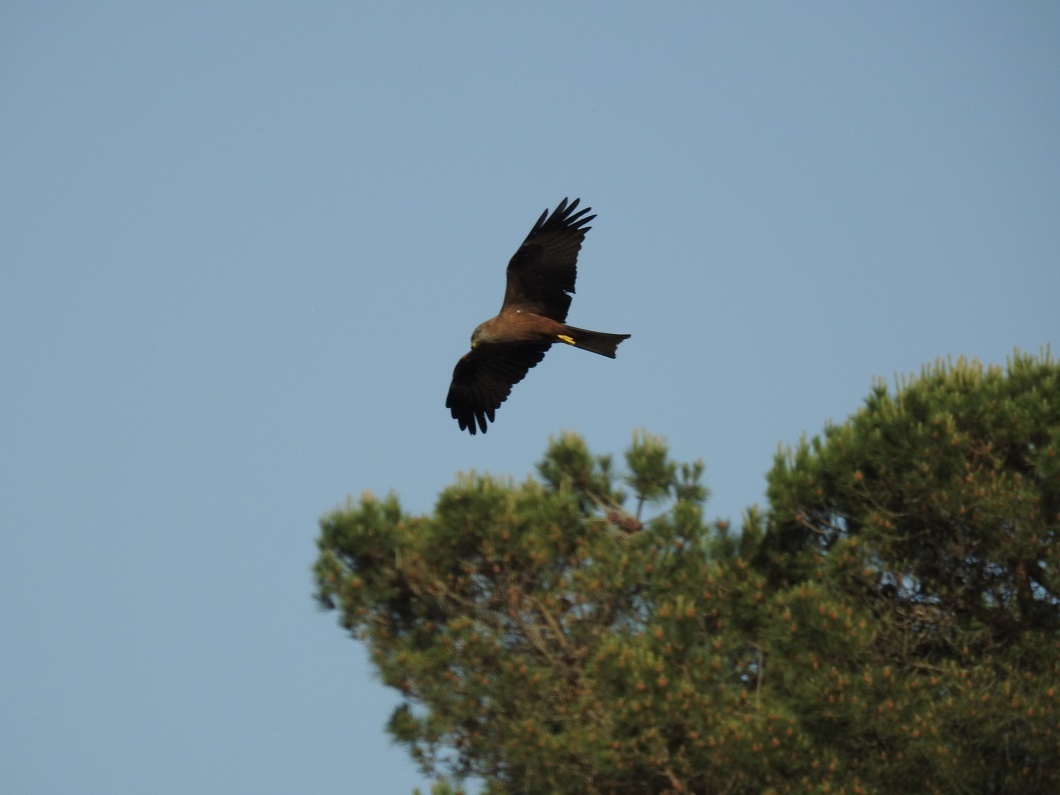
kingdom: Animalia
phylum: Chordata
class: Aves
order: Accipitriformes
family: Accipitridae
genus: Milvus
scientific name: Milvus migrans
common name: Black kite
